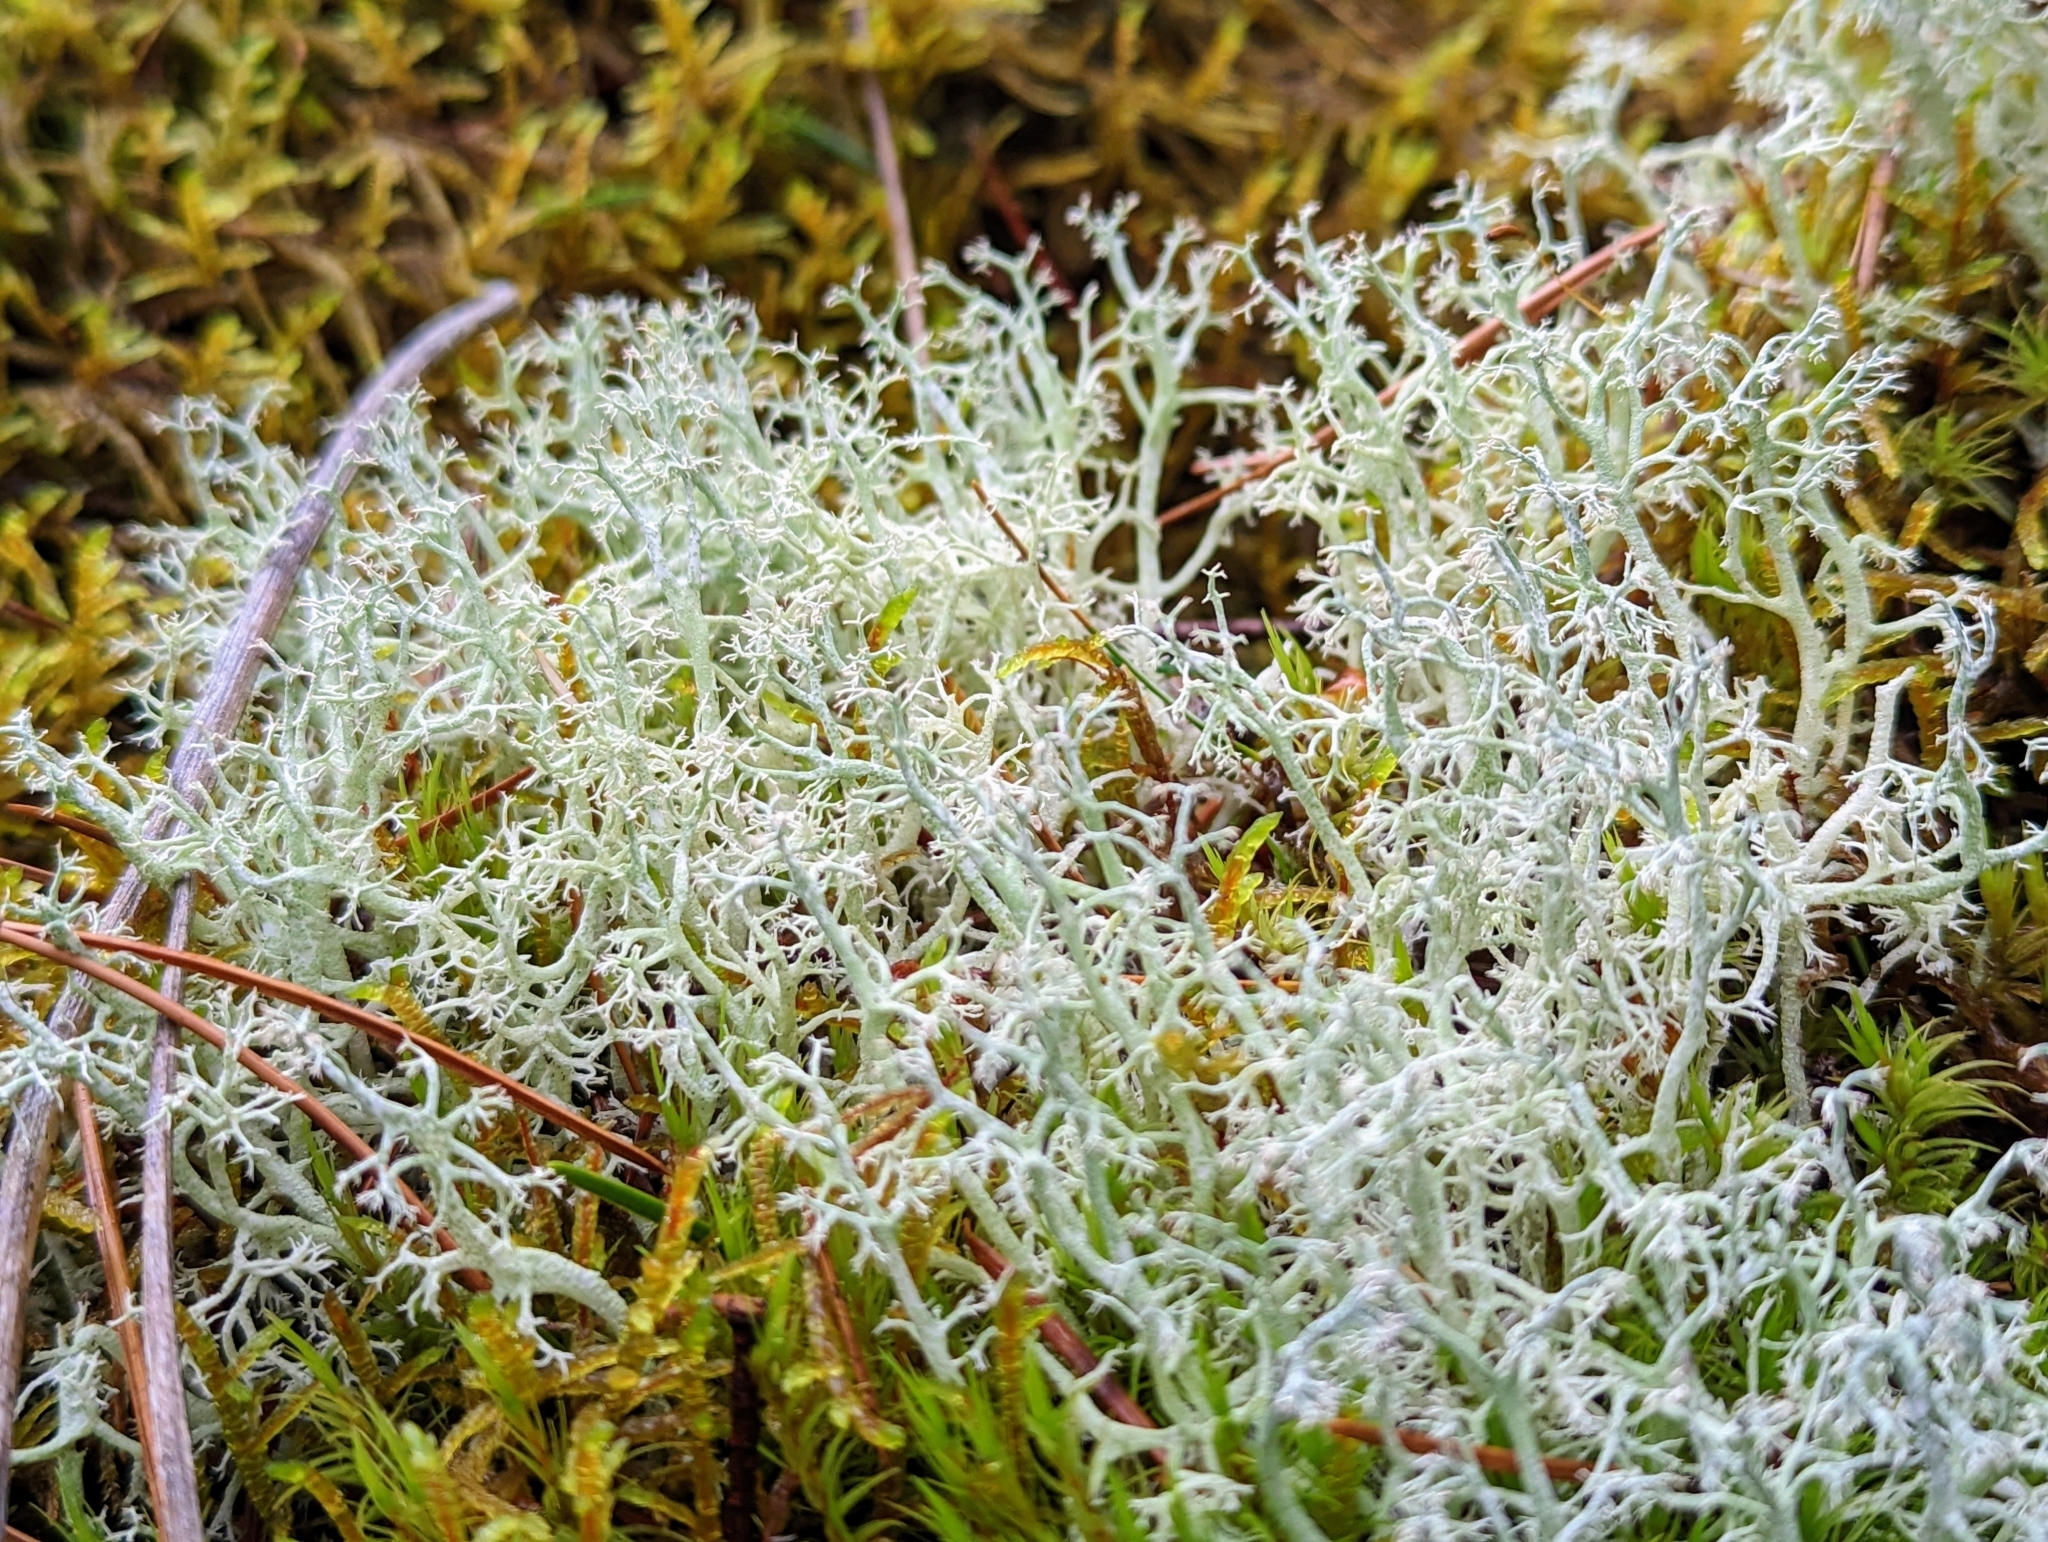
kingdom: Fungi
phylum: Ascomycota
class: Lecanoromycetes
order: Lecanorales
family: Cladoniaceae
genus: Cladonia
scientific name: Cladonia portentosa
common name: Reindeer lichen
